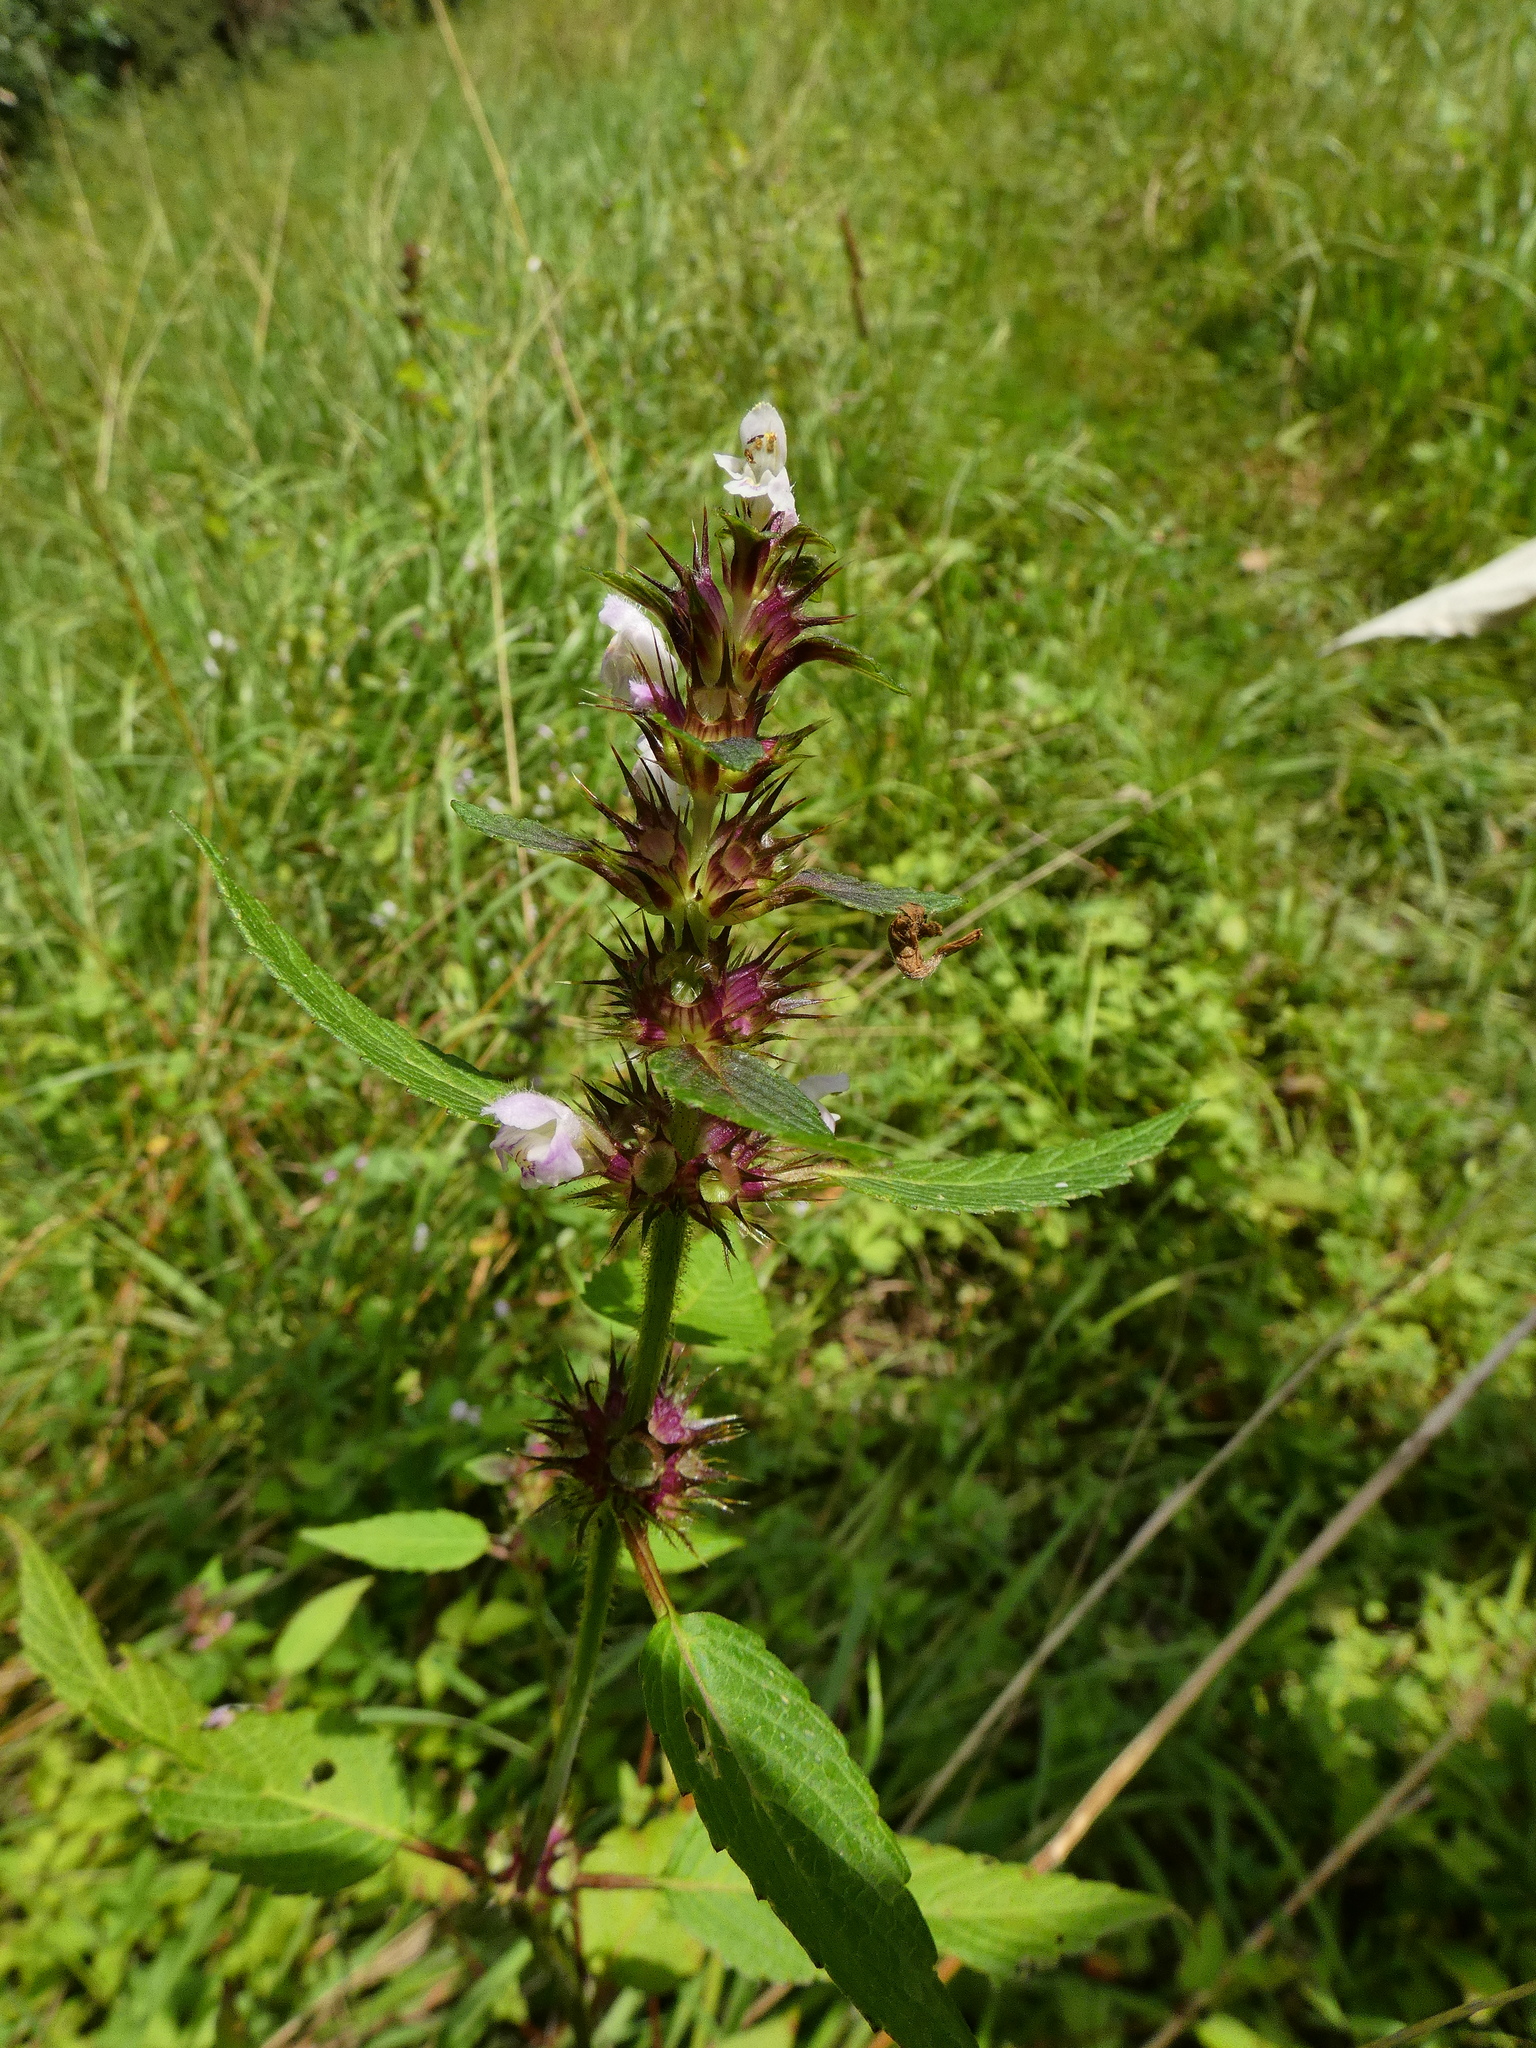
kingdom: Plantae
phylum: Tracheophyta
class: Magnoliopsida
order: Lamiales
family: Lamiaceae
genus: Galeopsis
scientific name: Galeopsis tetrahit
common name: Common hemp-nettle
